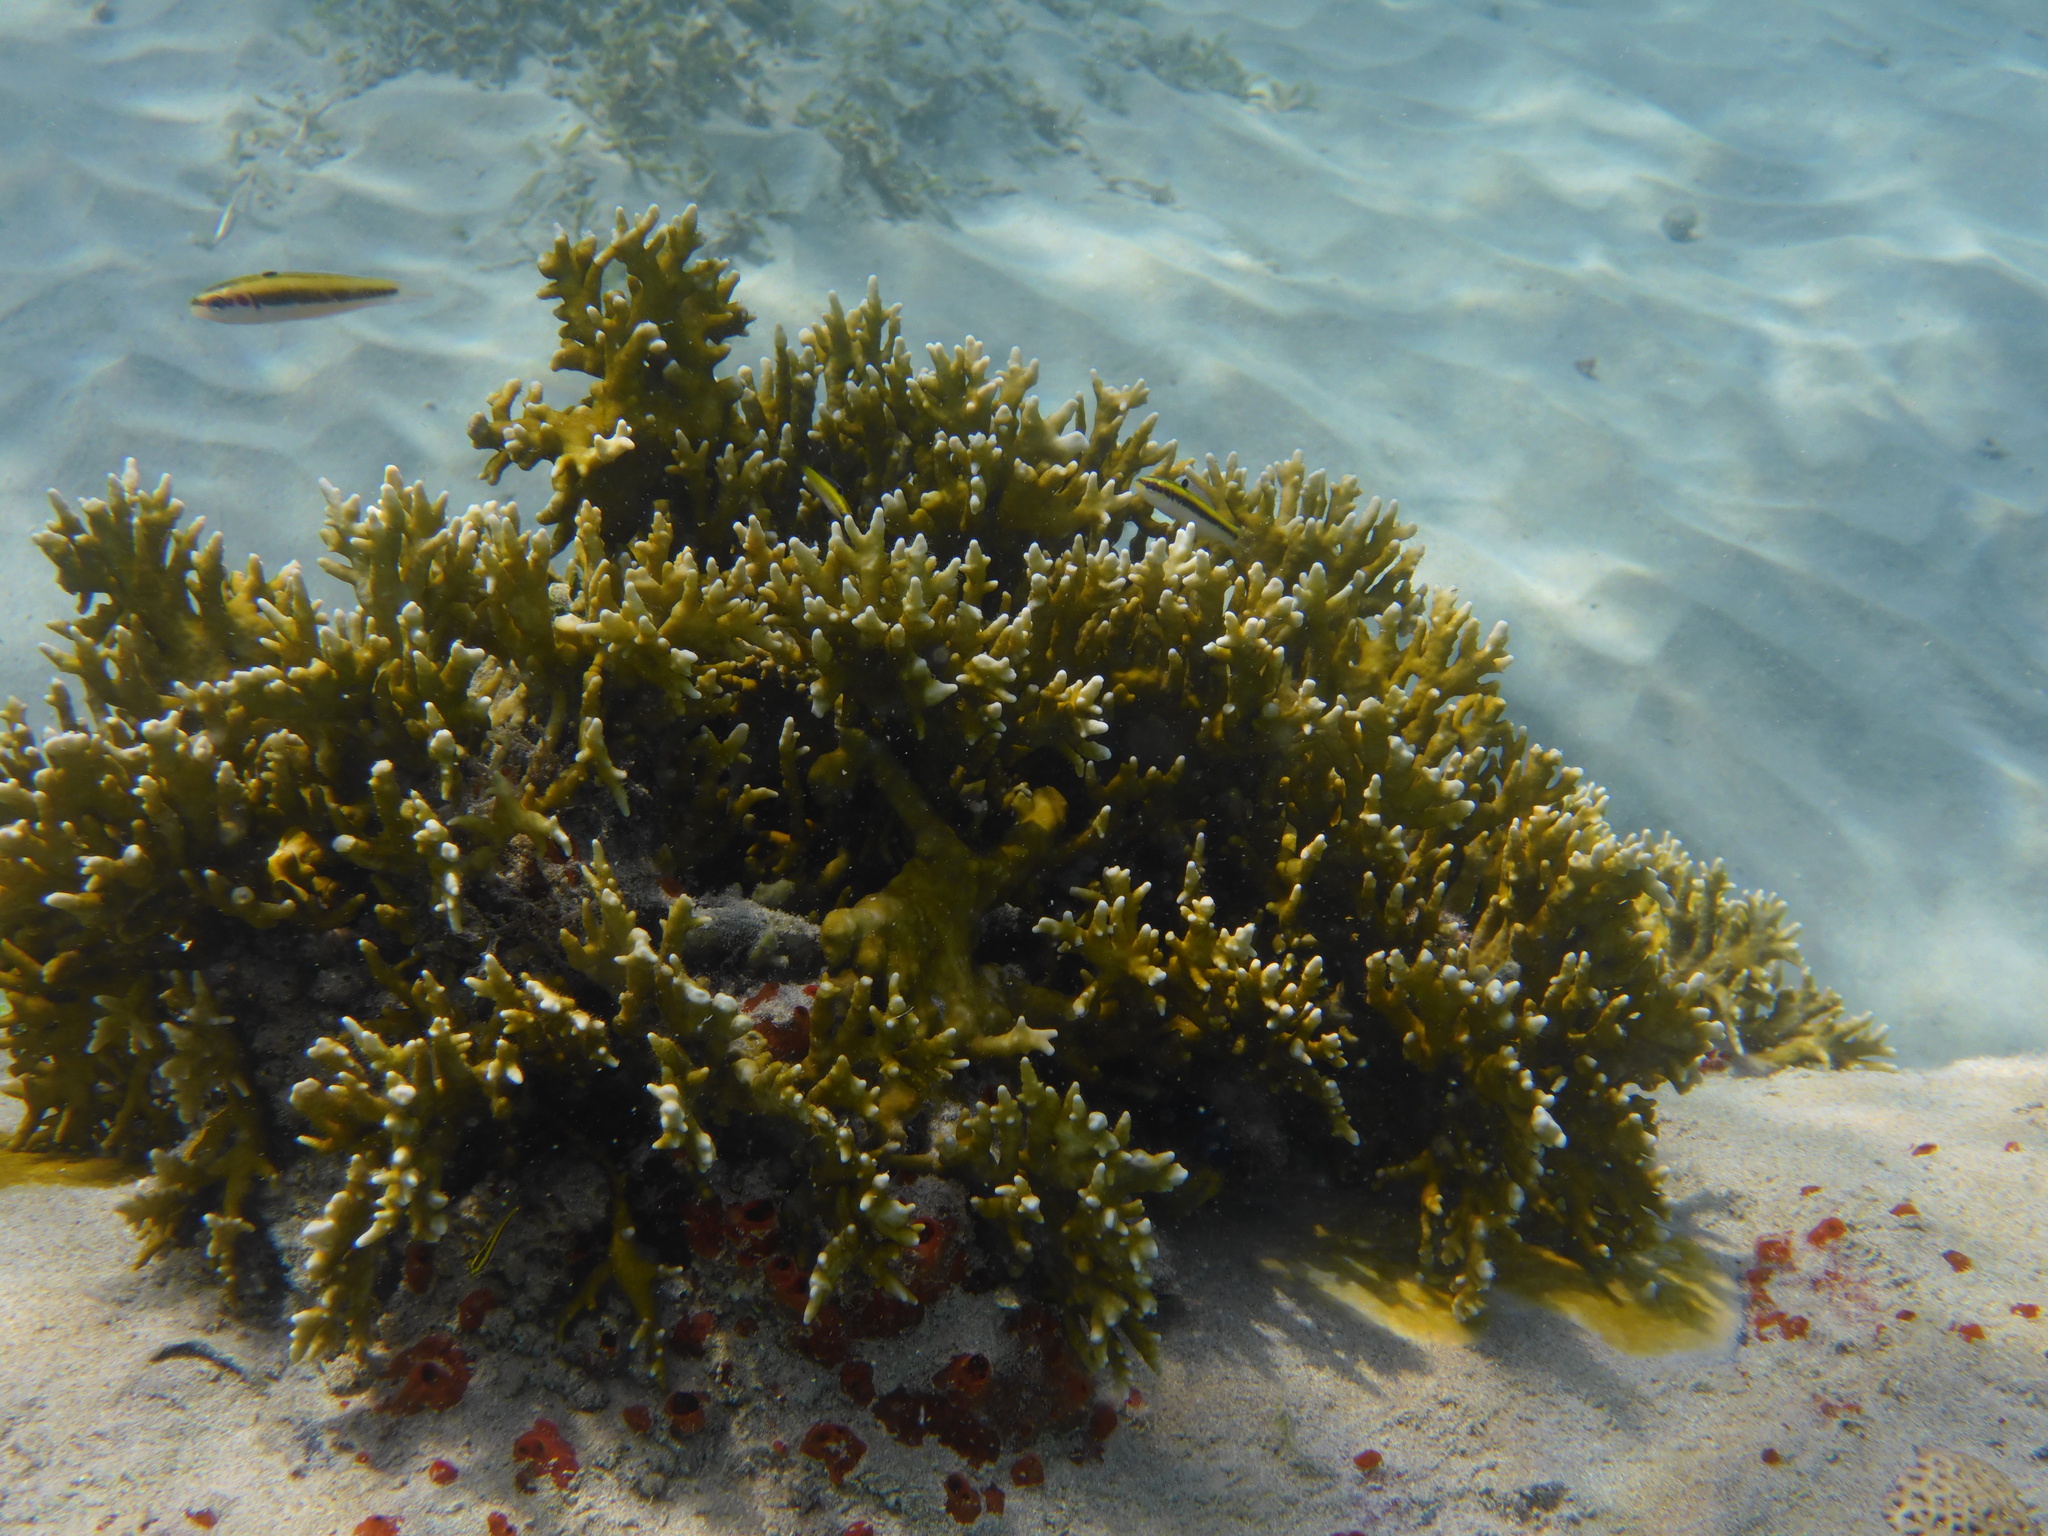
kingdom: Animalia
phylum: Cnidaria
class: Hydrozoa
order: Anthoathecata
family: Milleporidae
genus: Millepora
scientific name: Millepora alcicornis
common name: Branching fire coral
